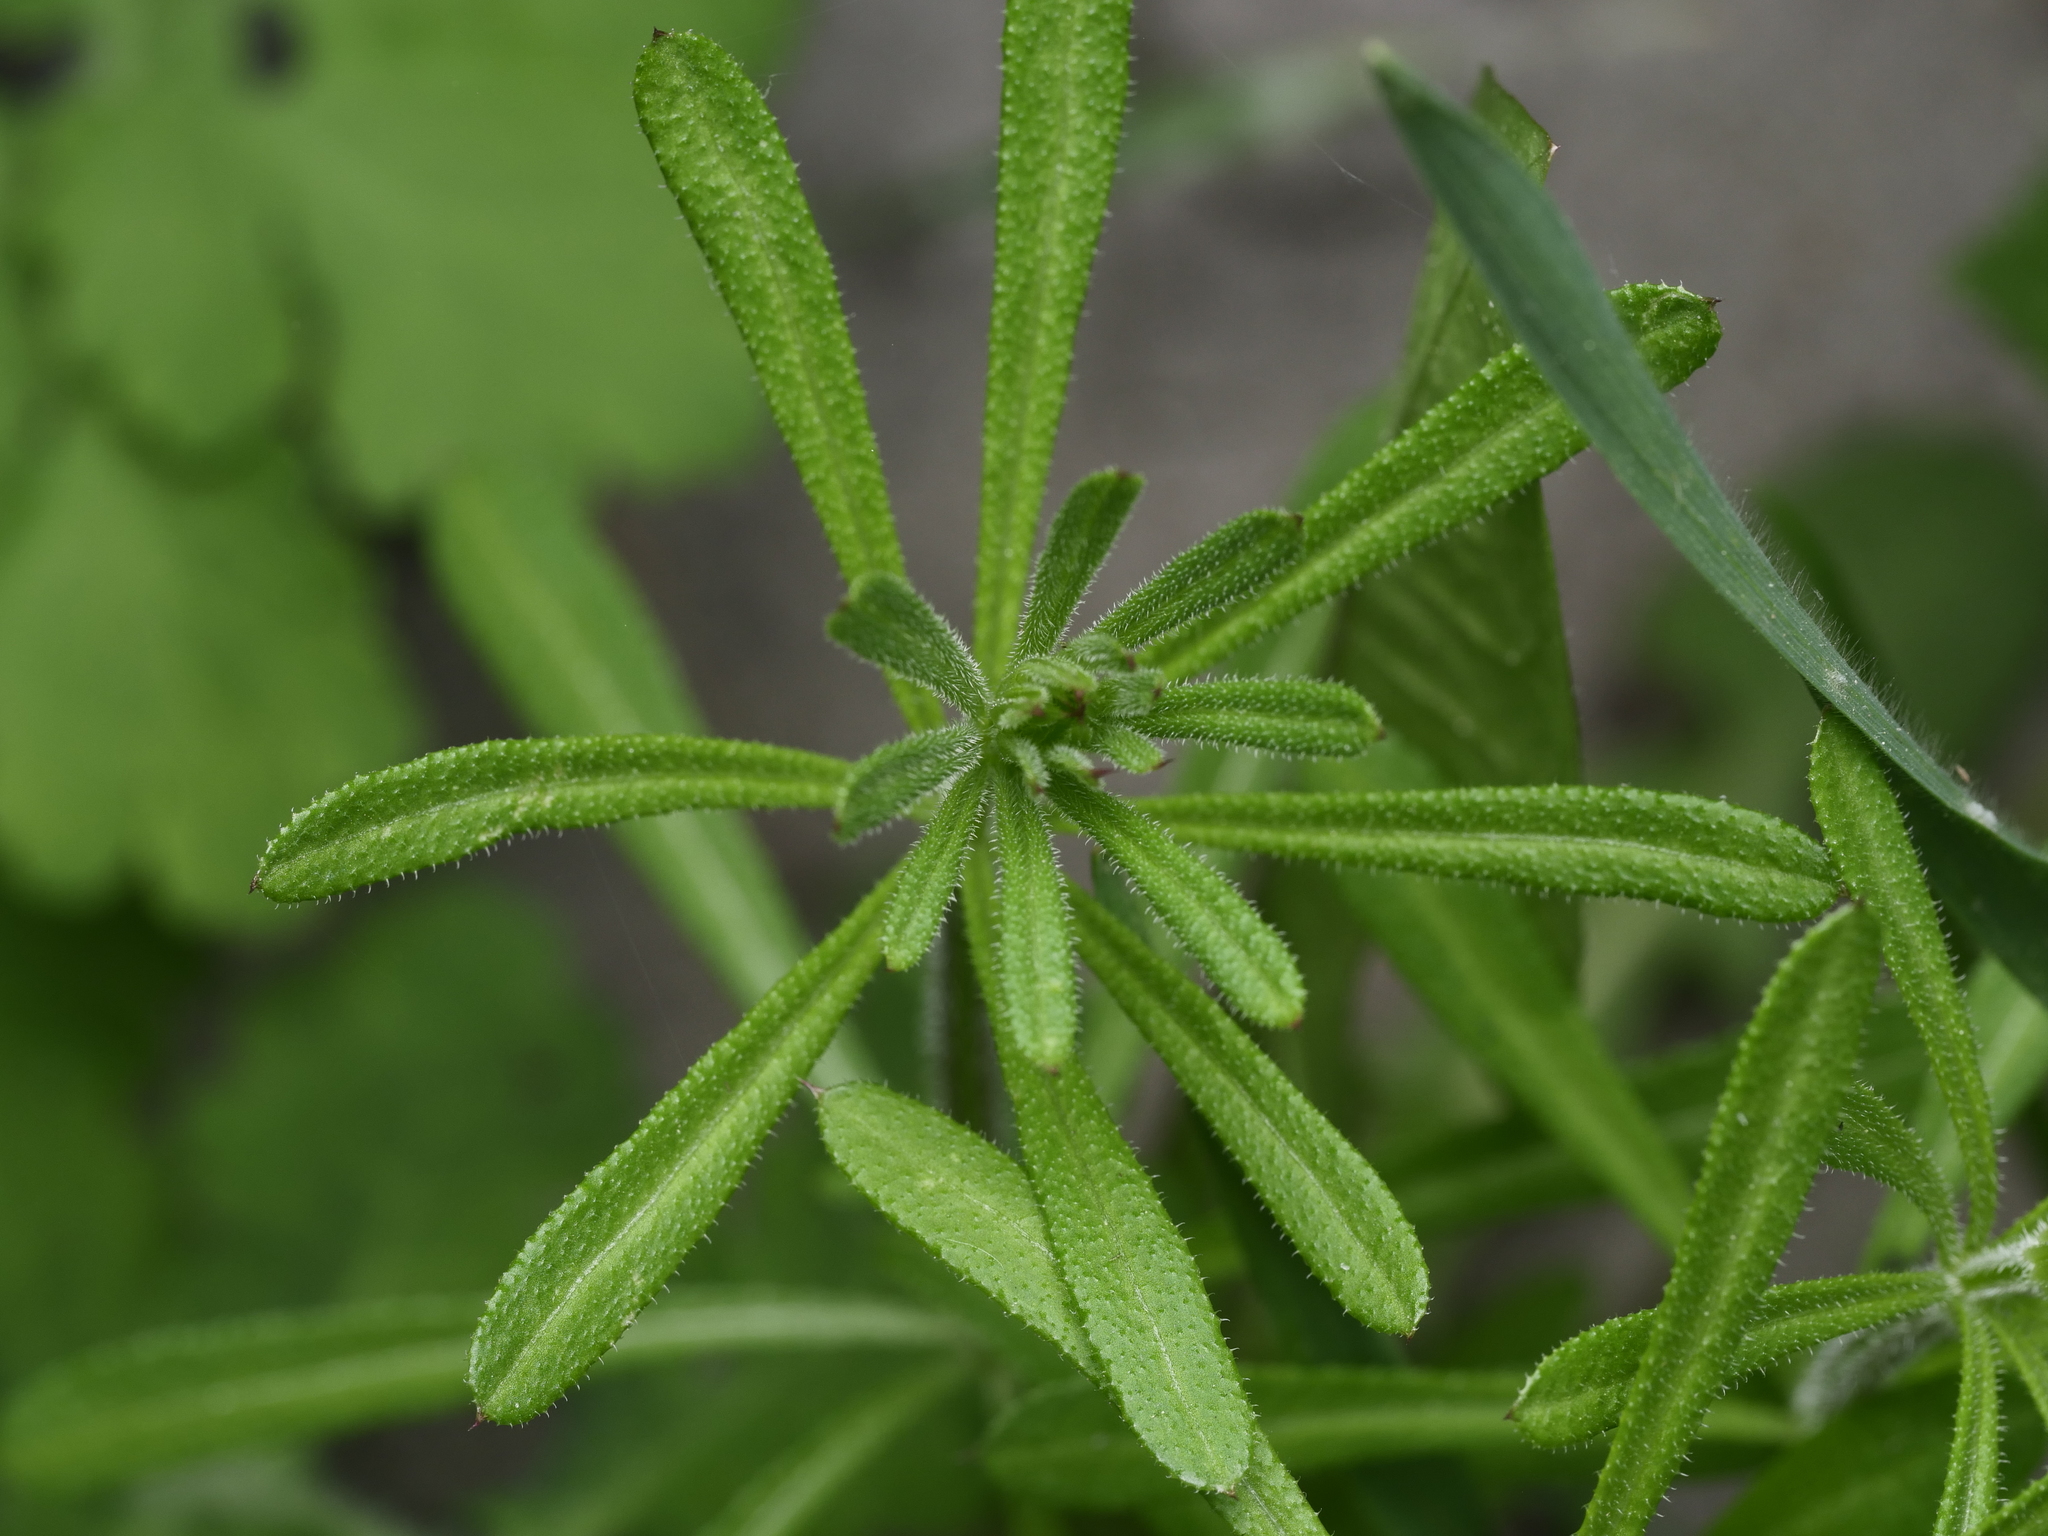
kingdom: Plantae
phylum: Tracheophyta
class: Magnoliopsida
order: Gentianales
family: Rubiaceae
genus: Galium
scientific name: Galium aparine
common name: Cleavers
